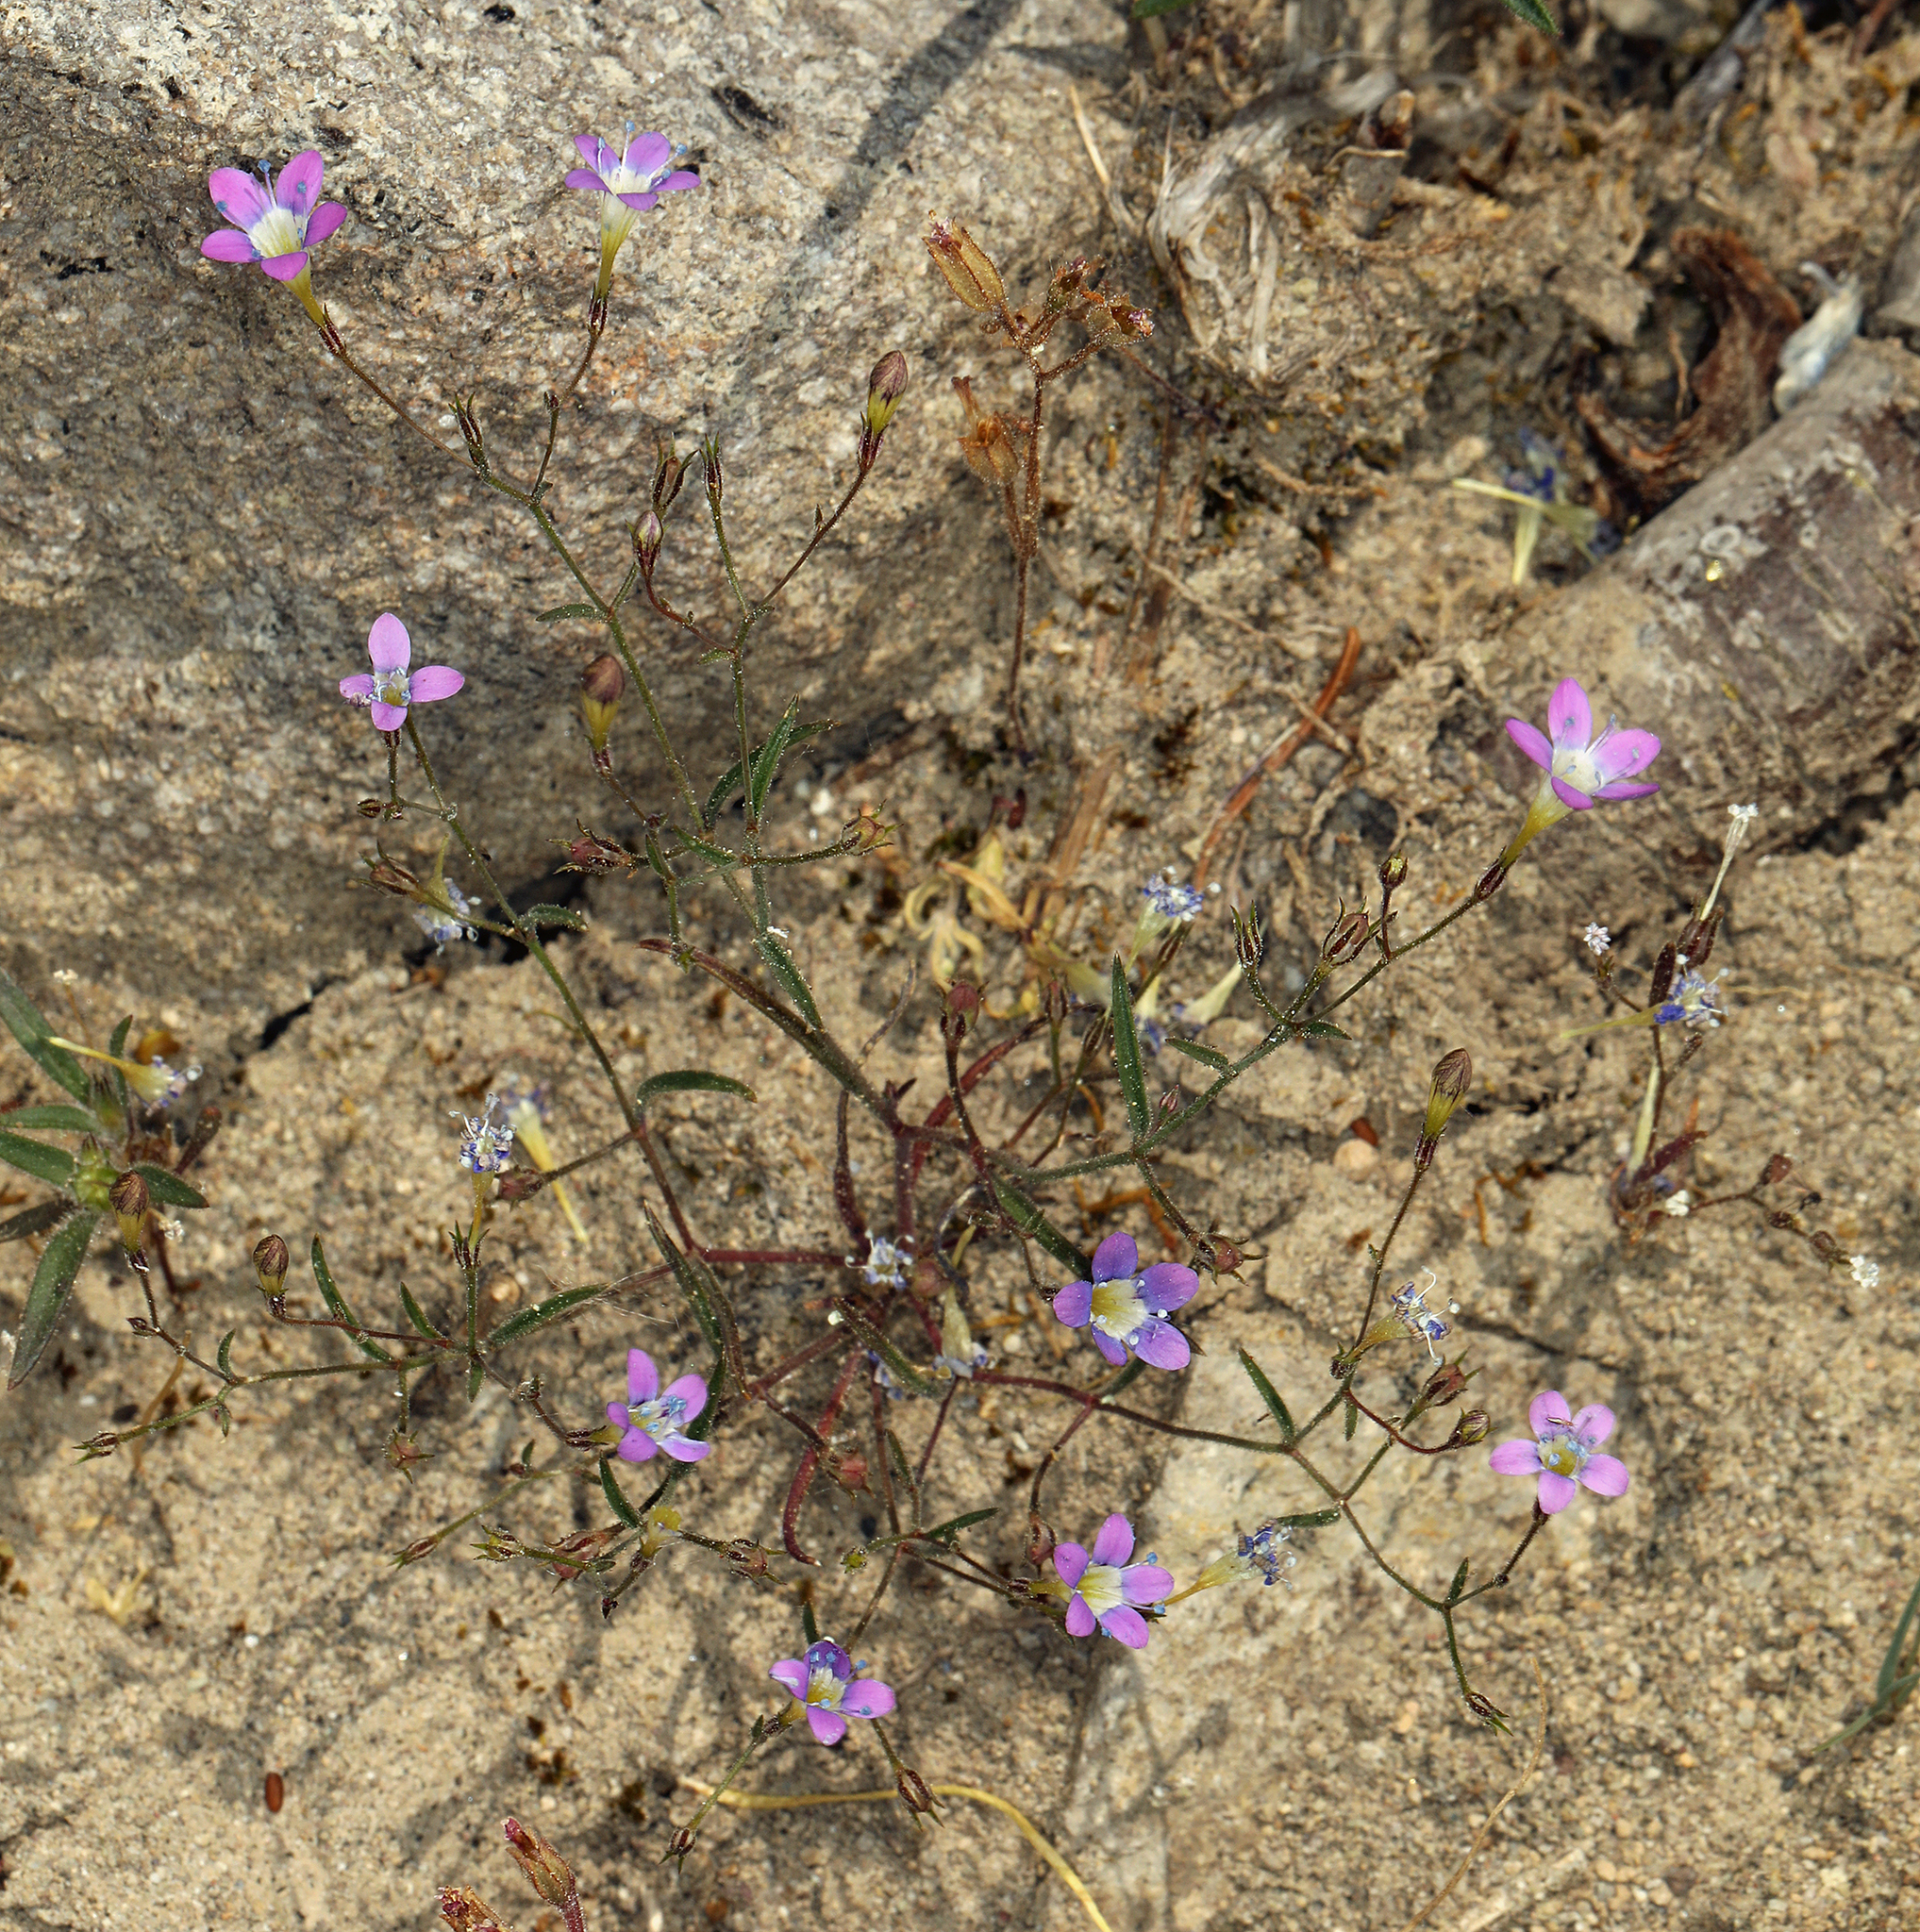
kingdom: Plantae
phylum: Tracheophyta
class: Magnoliopsida
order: Ericales
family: Polemoniaceae
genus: Navarretia
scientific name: Navarretia leptalea
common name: Bridges' pincushionplant
